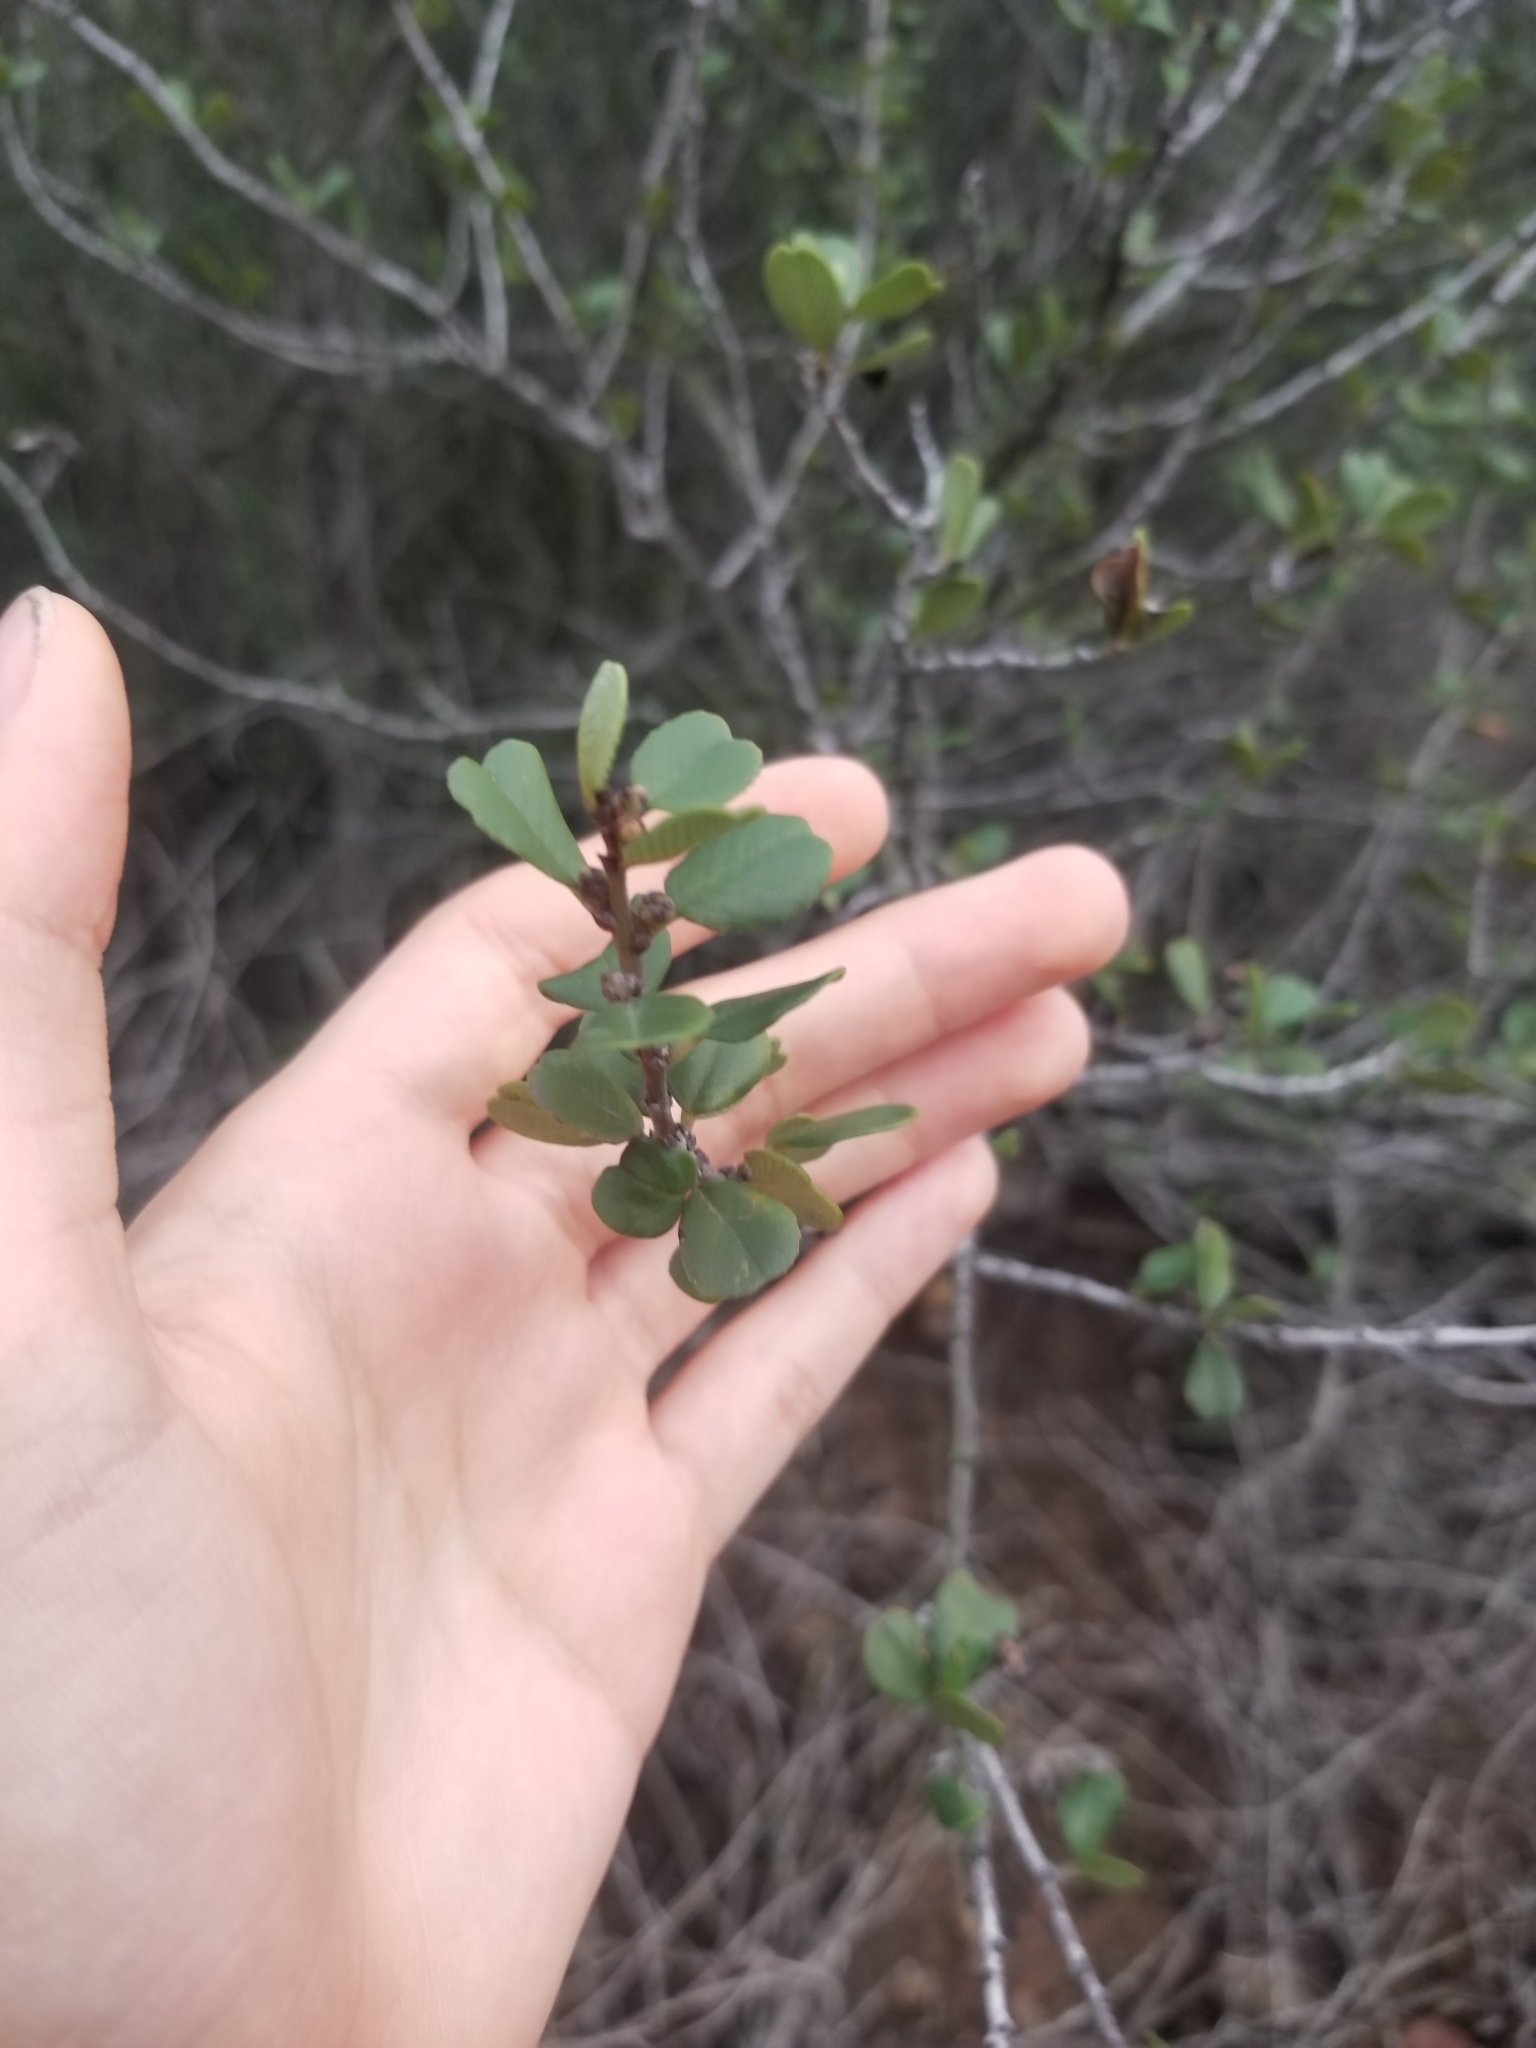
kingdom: Plantae
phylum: Tracheophyta
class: Magnoliopsida
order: Rosales
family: Rhamnaceae
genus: Ceanothus
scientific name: Ceanothus verrucosus
